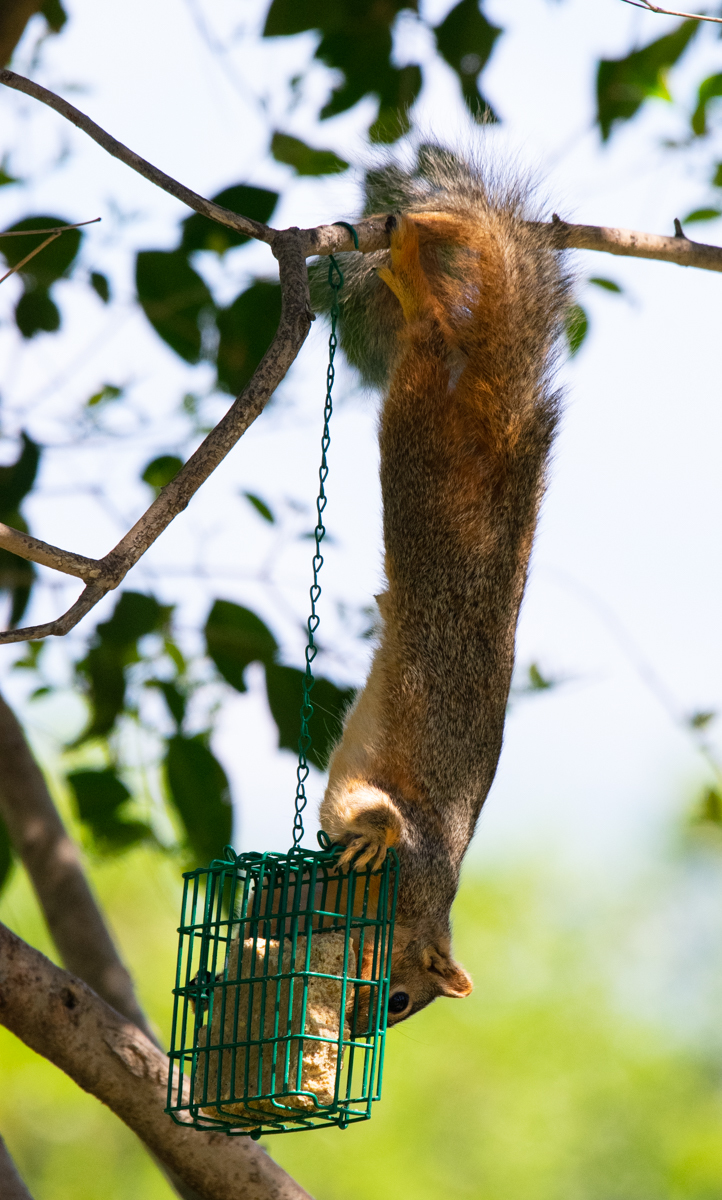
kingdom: Animalia
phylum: Chordata
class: Mammalia
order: Rodentia
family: Sciuridae
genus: Sciurus
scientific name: Sciurus niger
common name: Fox squirrel
